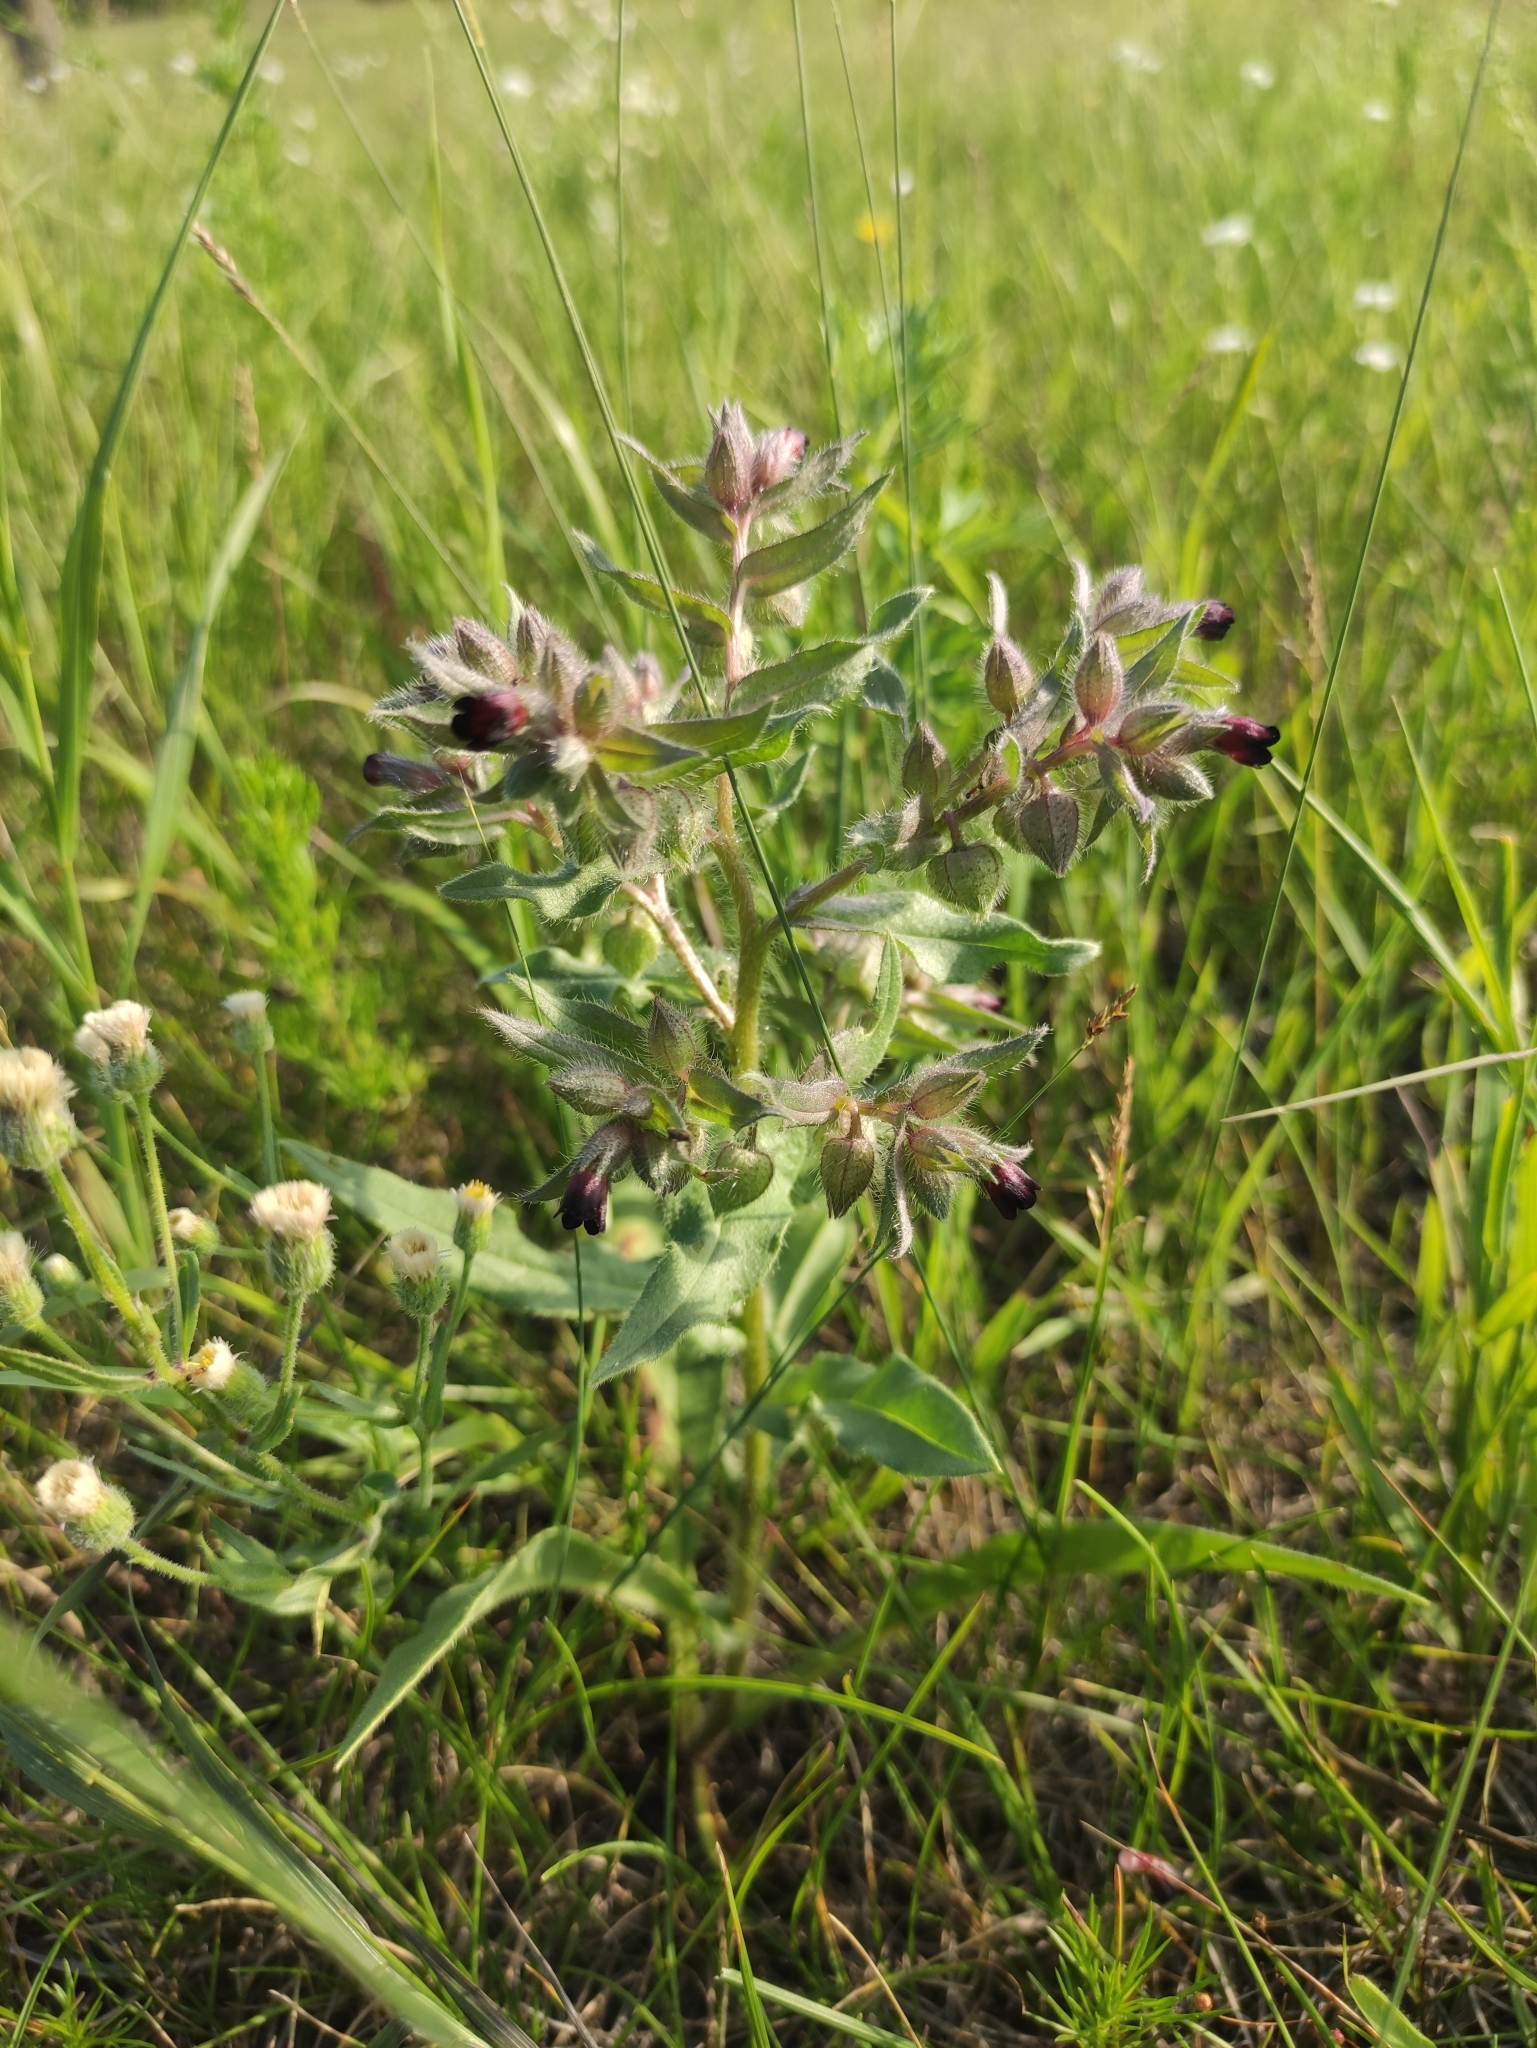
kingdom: Plantae
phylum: Tracheophyta
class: Magnoliopsida
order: Boraginales
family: Boraginaceae
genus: Nonea
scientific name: Nonea pulla
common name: Brown nonea
